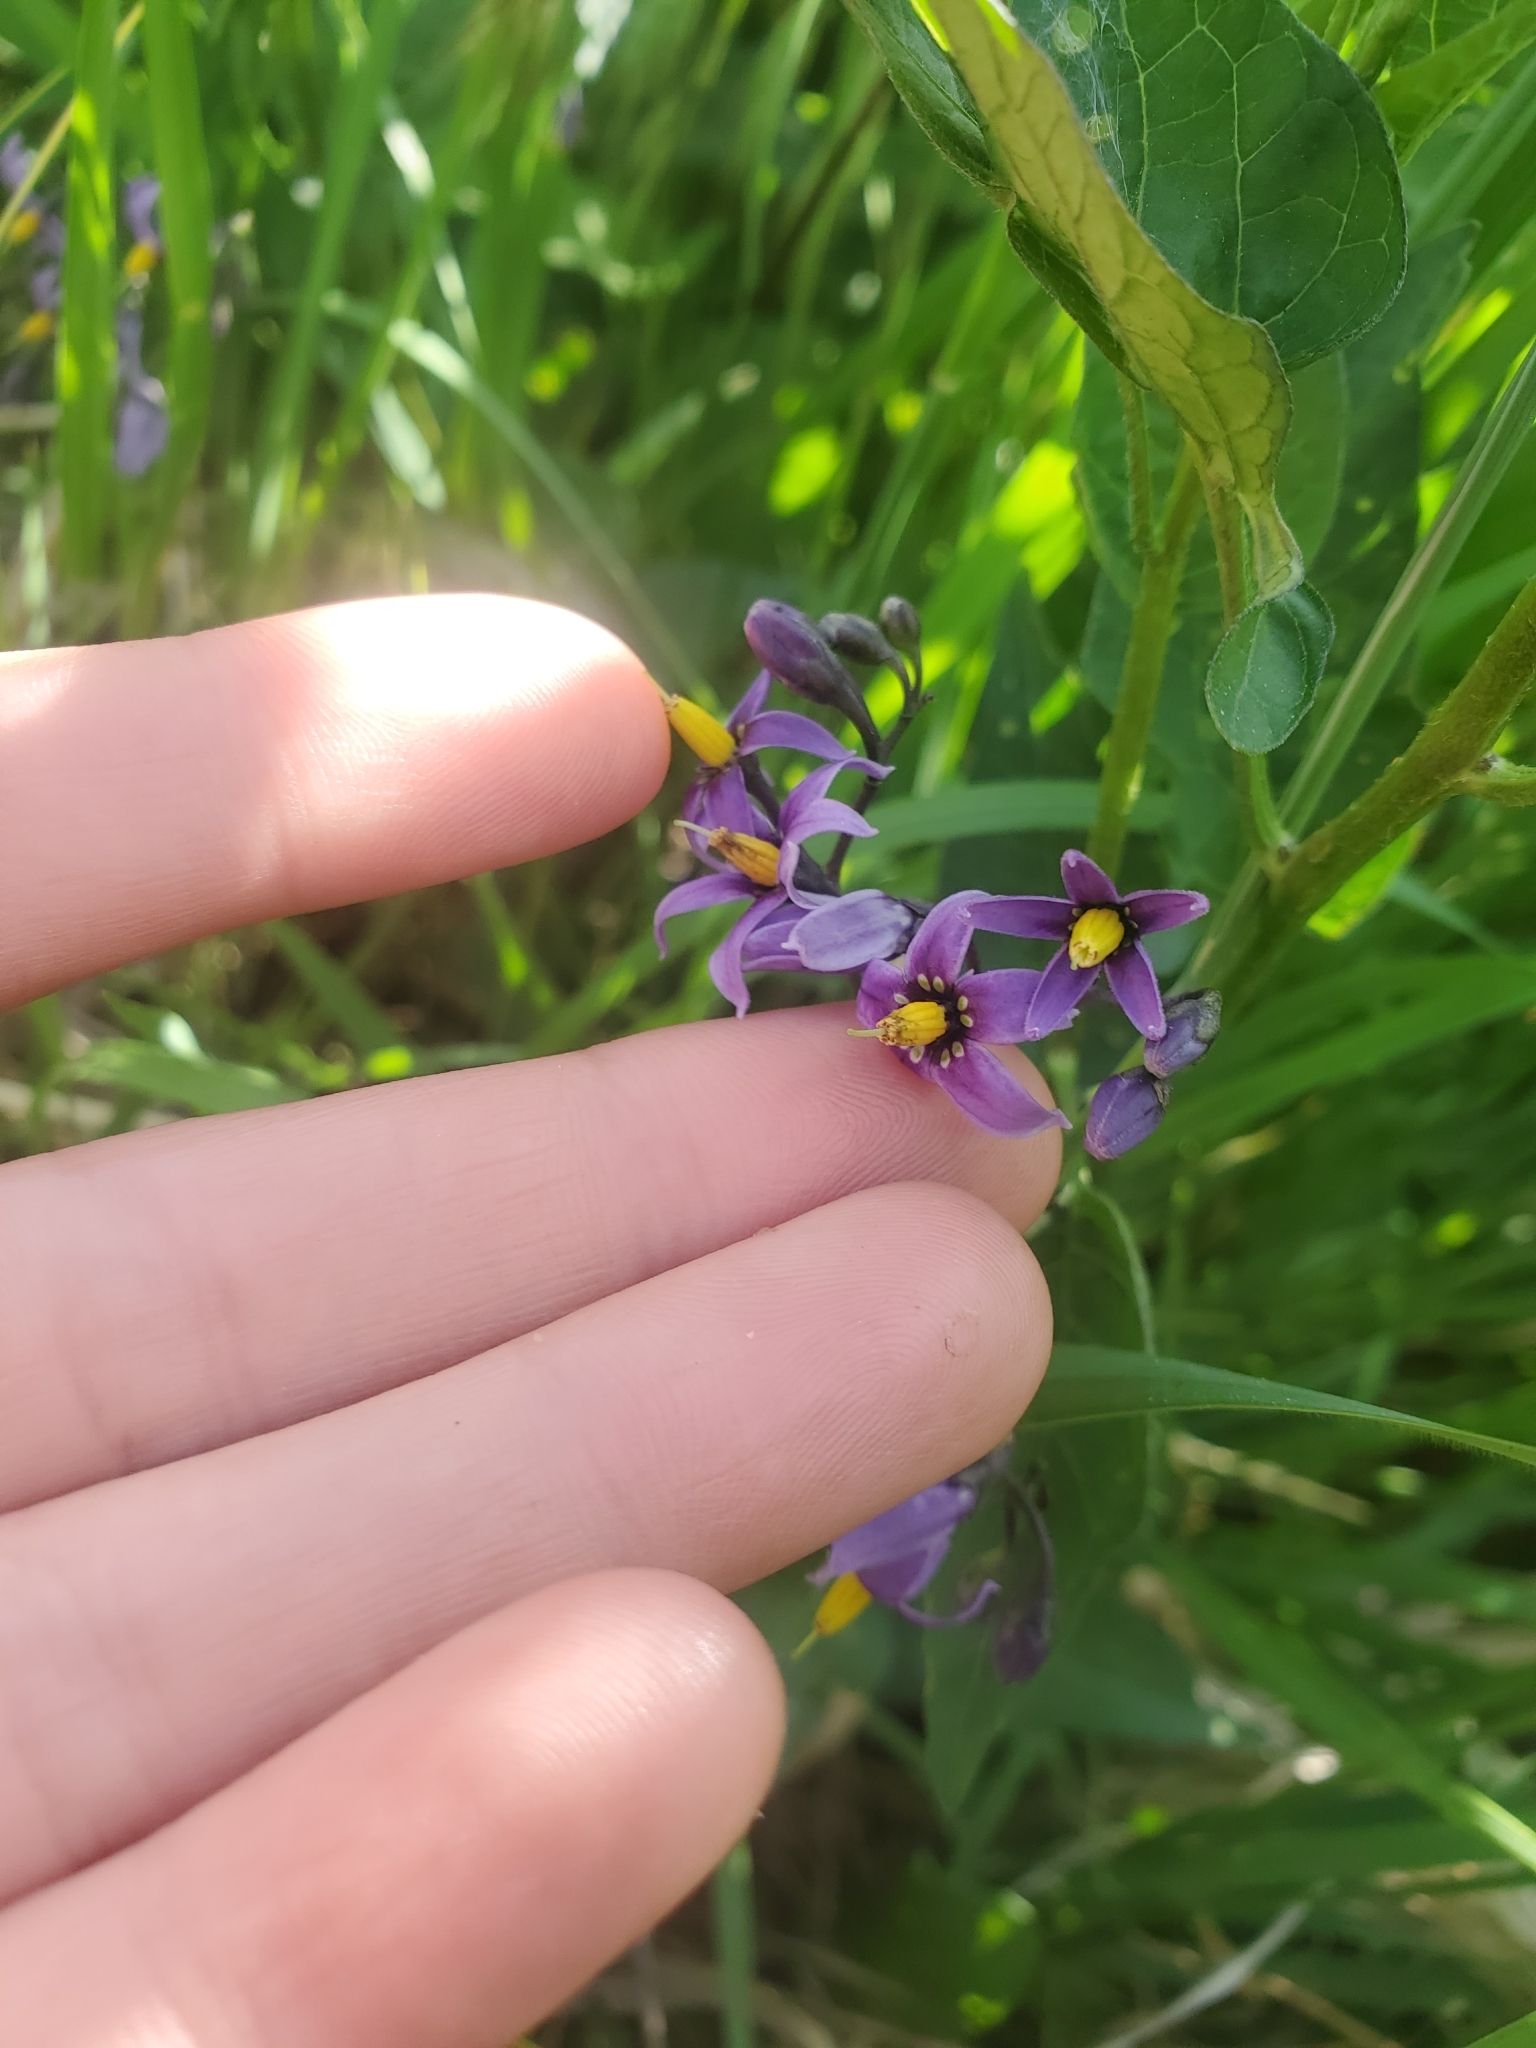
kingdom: Plantae
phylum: Tracheophyta
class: Magnoliopsida
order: Solanales
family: Solanaceae
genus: Solanum
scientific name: Solanum dulcamara
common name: Climbing nightshade
